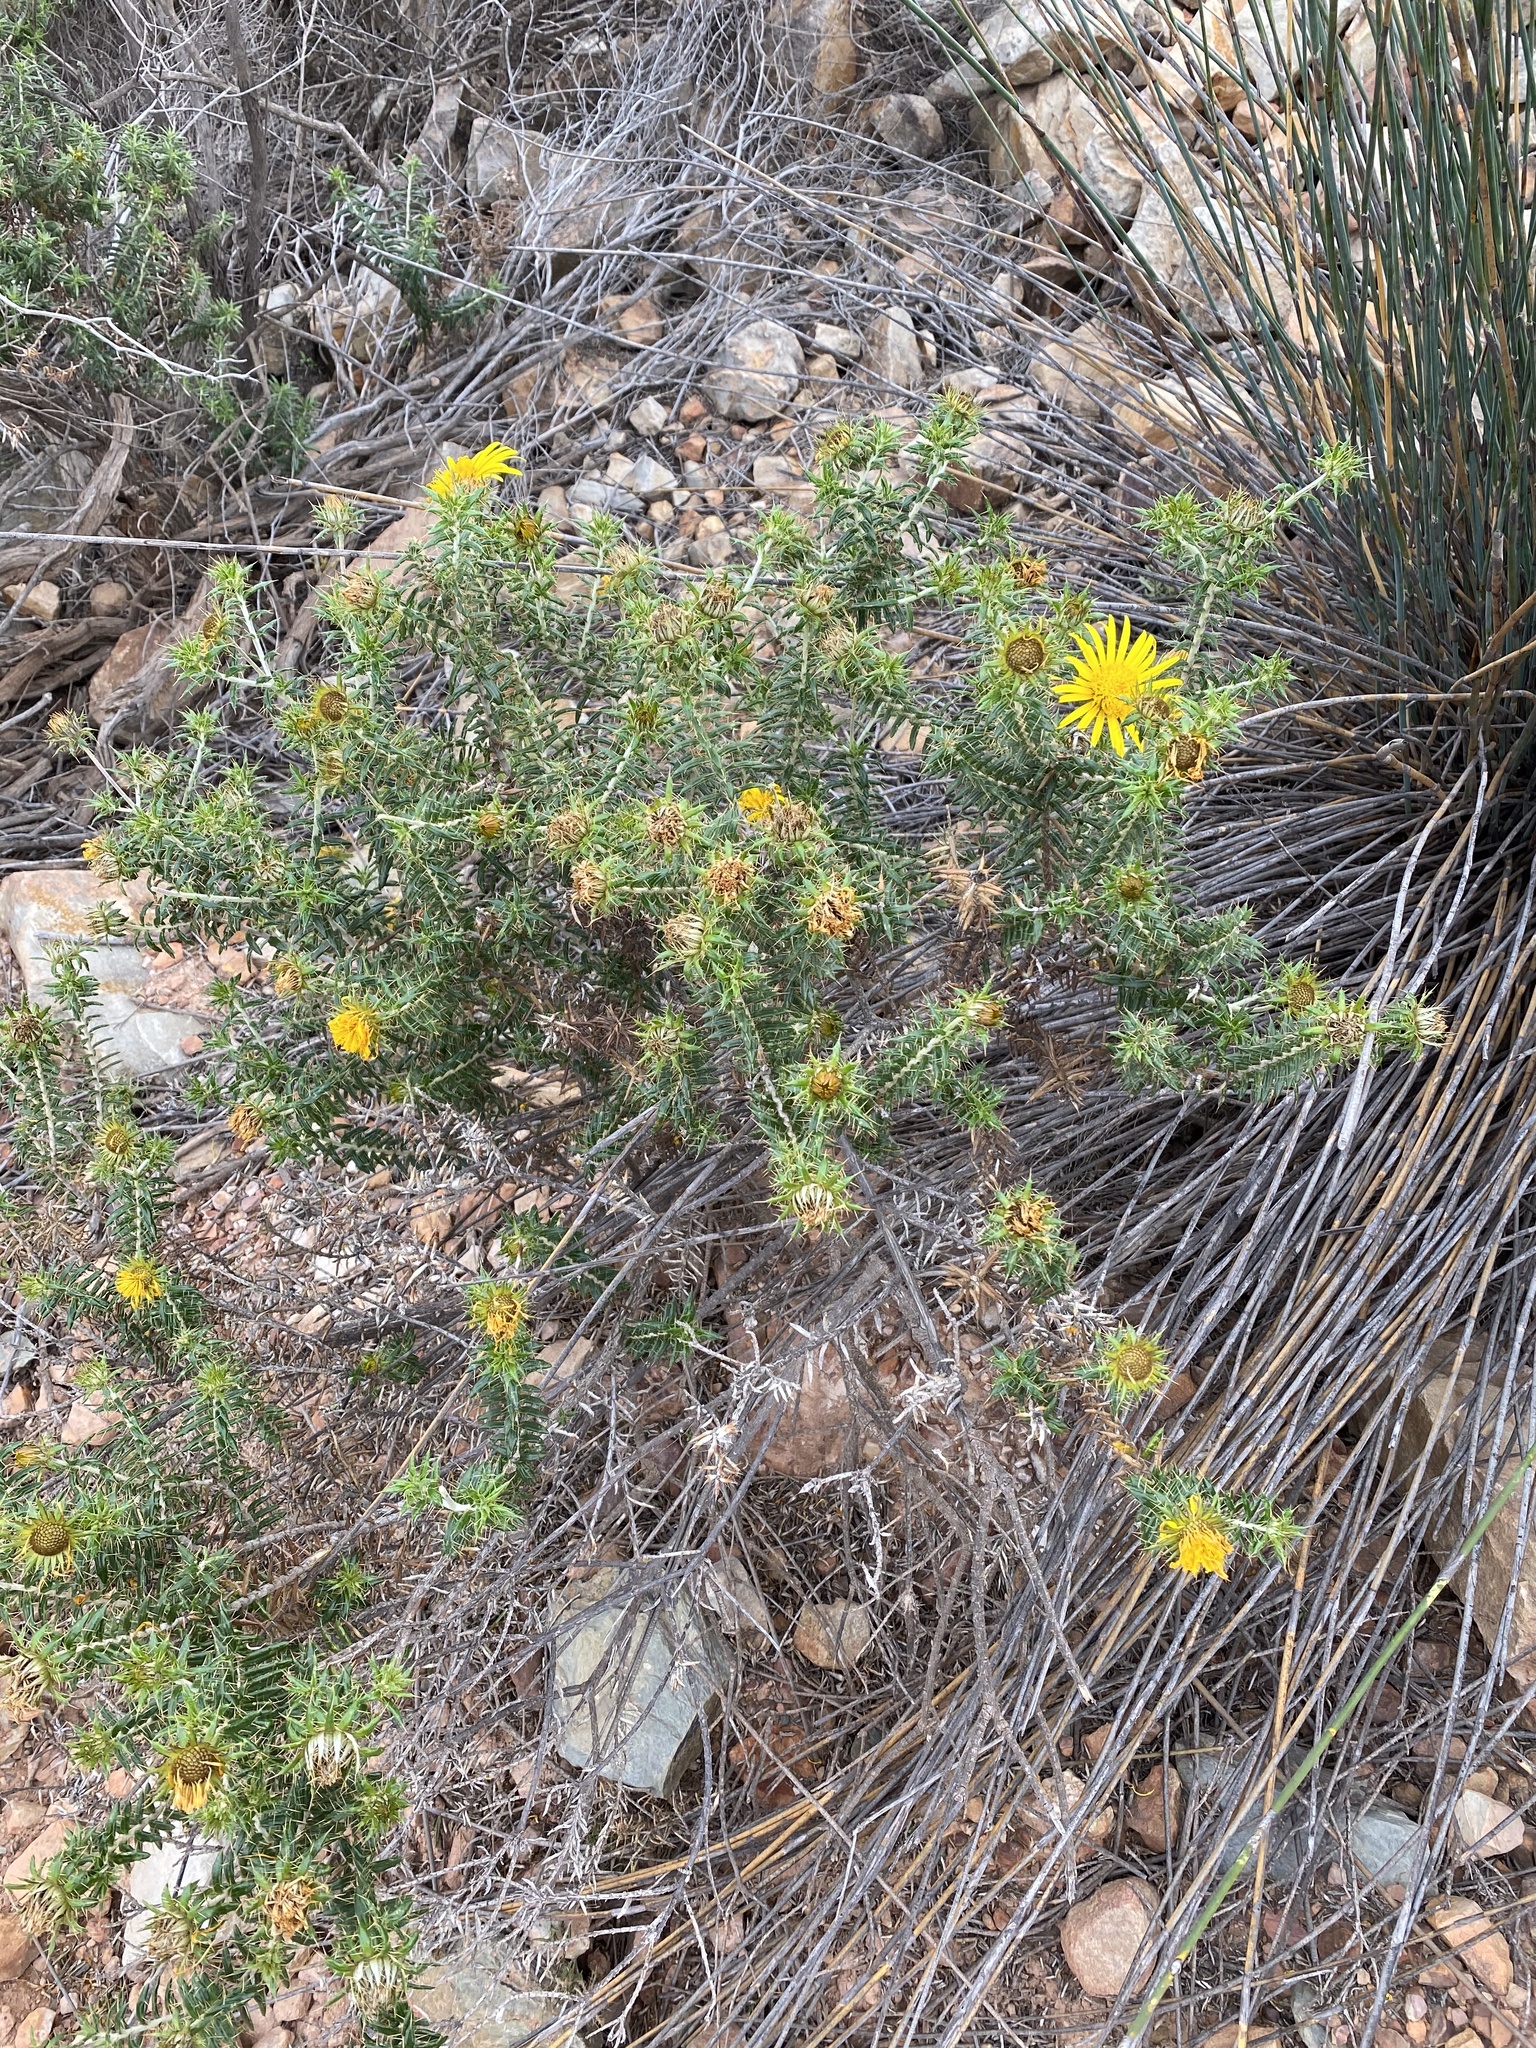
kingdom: Plantae
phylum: Tracheophyta
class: Magnoliopsida
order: Asterales
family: Asteraceae
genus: Berkheya
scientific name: Berkheya angustifolia
